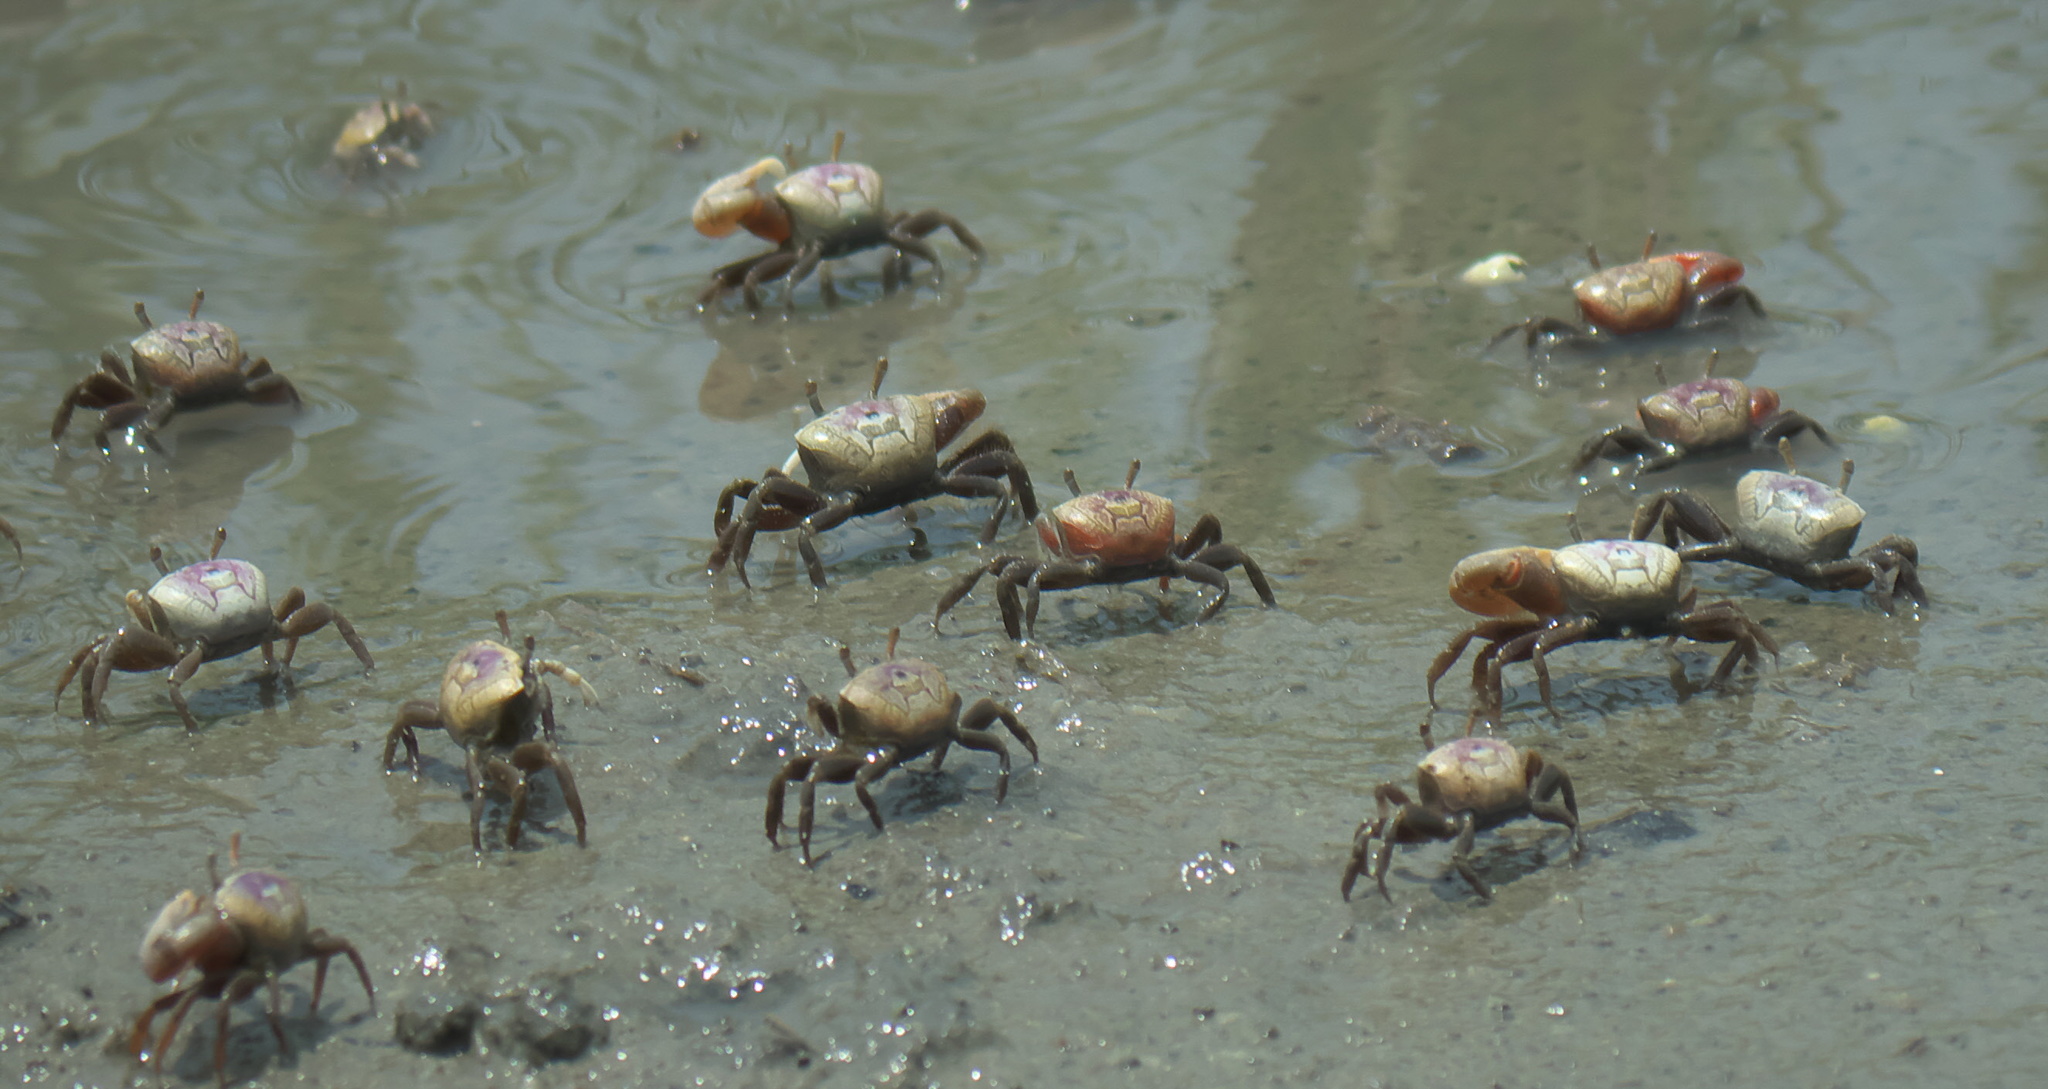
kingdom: Animalia
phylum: Arthropoda
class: Malacostraca
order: Decapoda
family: Ocypodidae
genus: Leptuca
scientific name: Leptuca pugilator
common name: Atlantic sand fiddler crab
